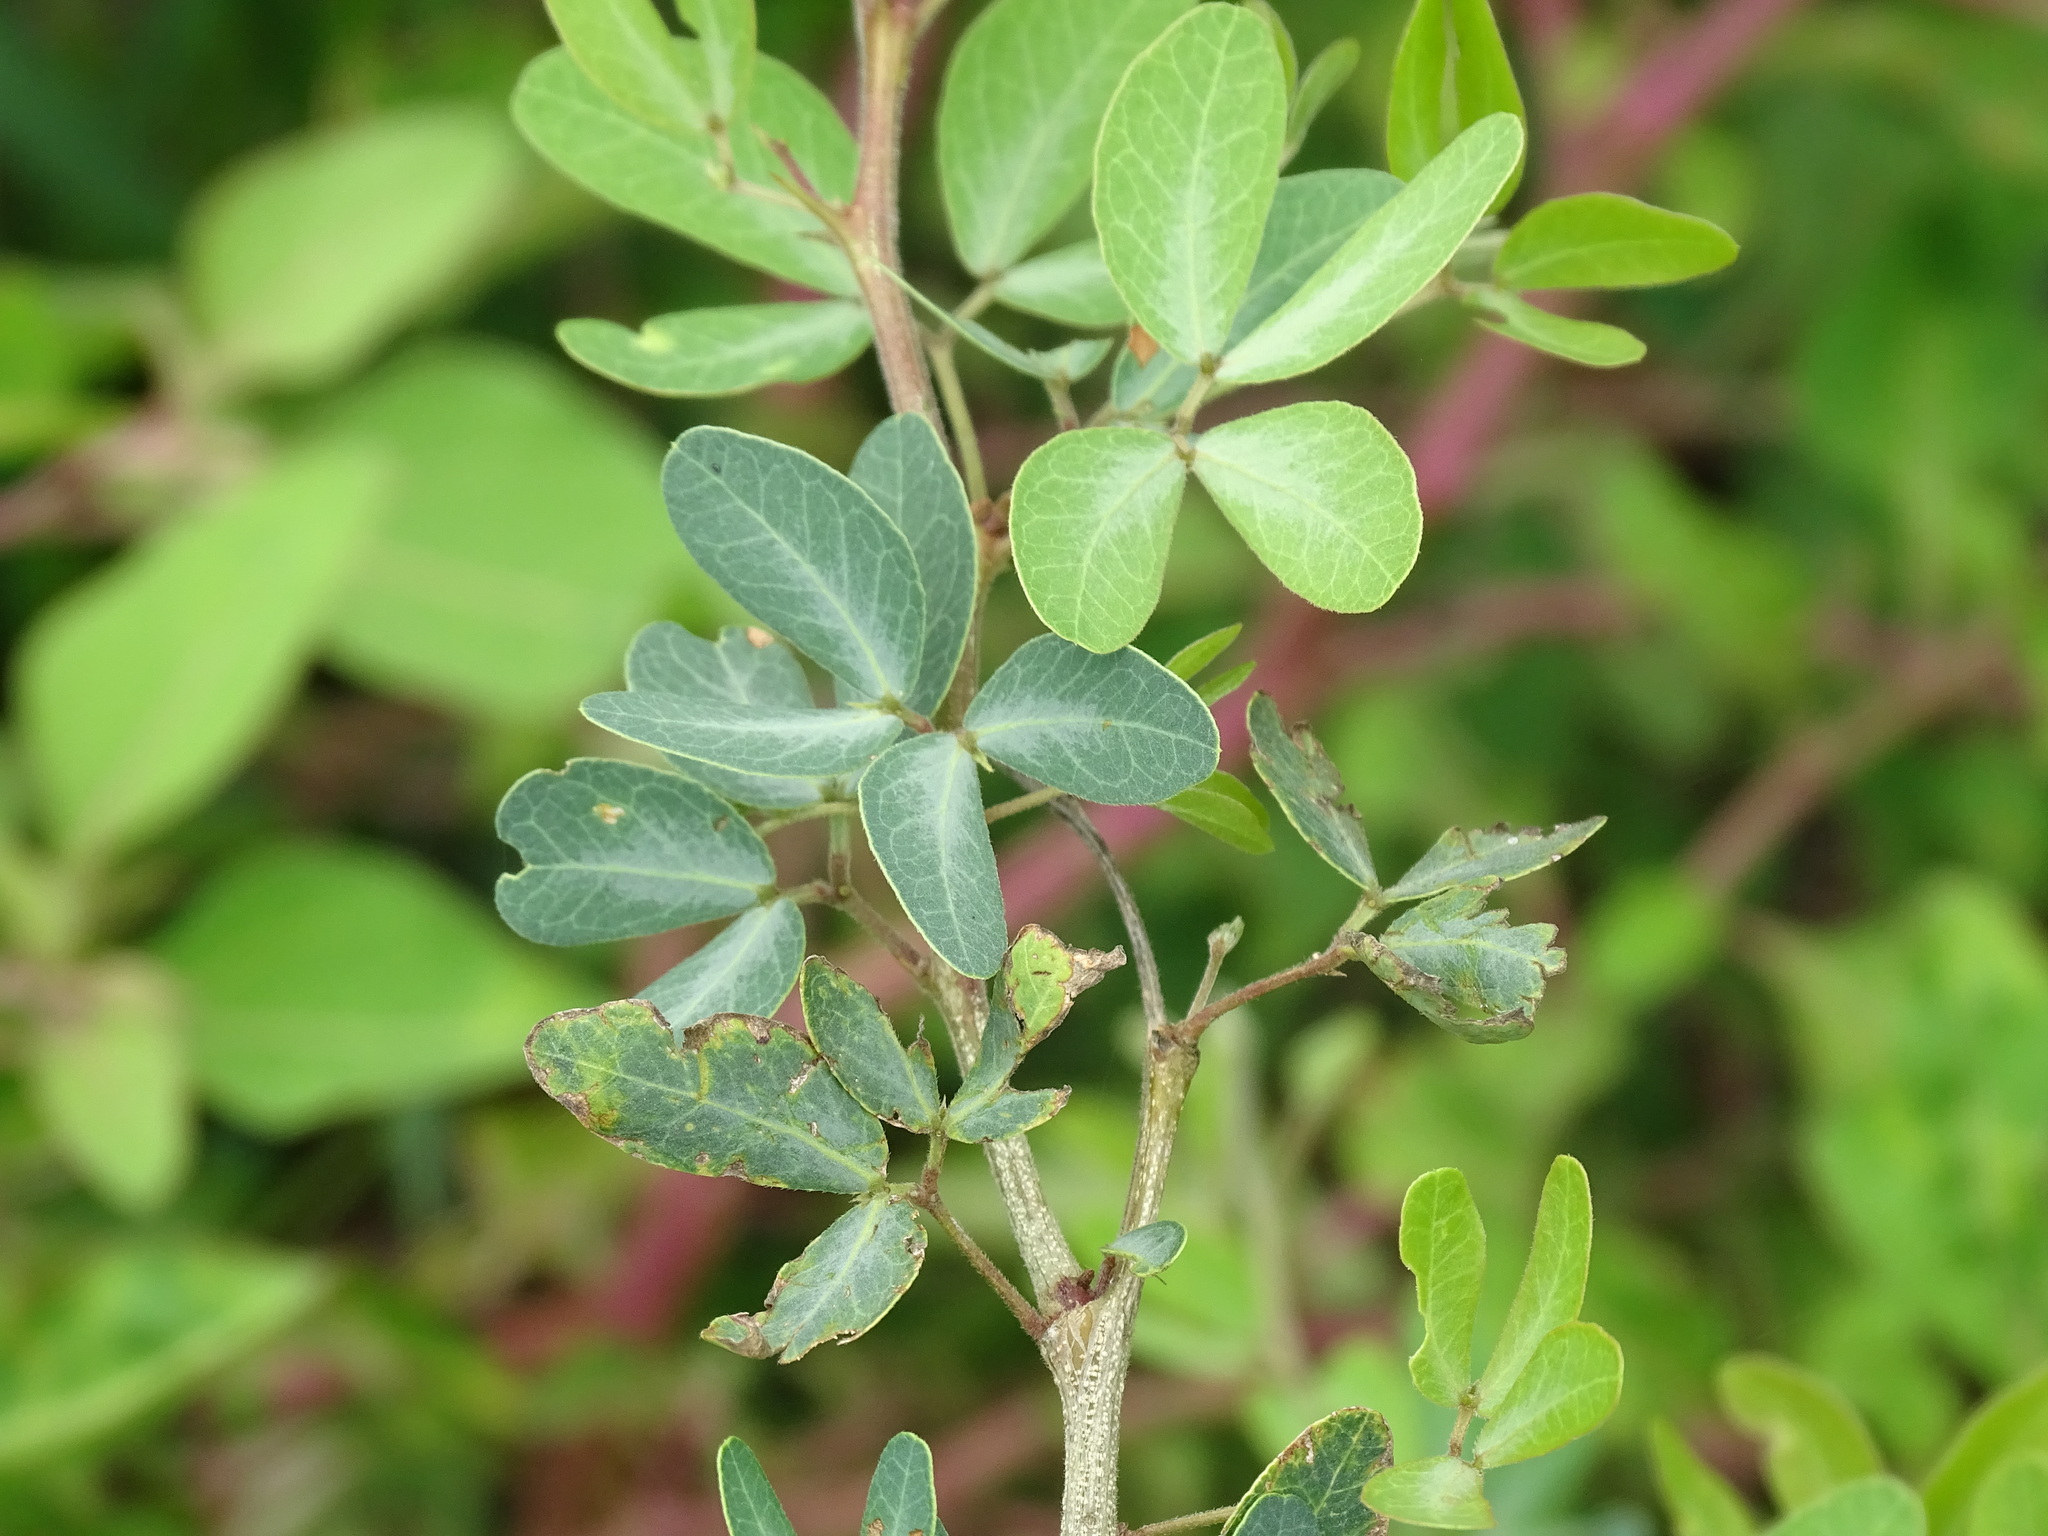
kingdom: Plantae
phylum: Tracheophyta
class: Magnoliopsida
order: Fabales
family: Fabaceae
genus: Pithecellobium
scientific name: Pithecellobium dulce
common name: Monkeypod
